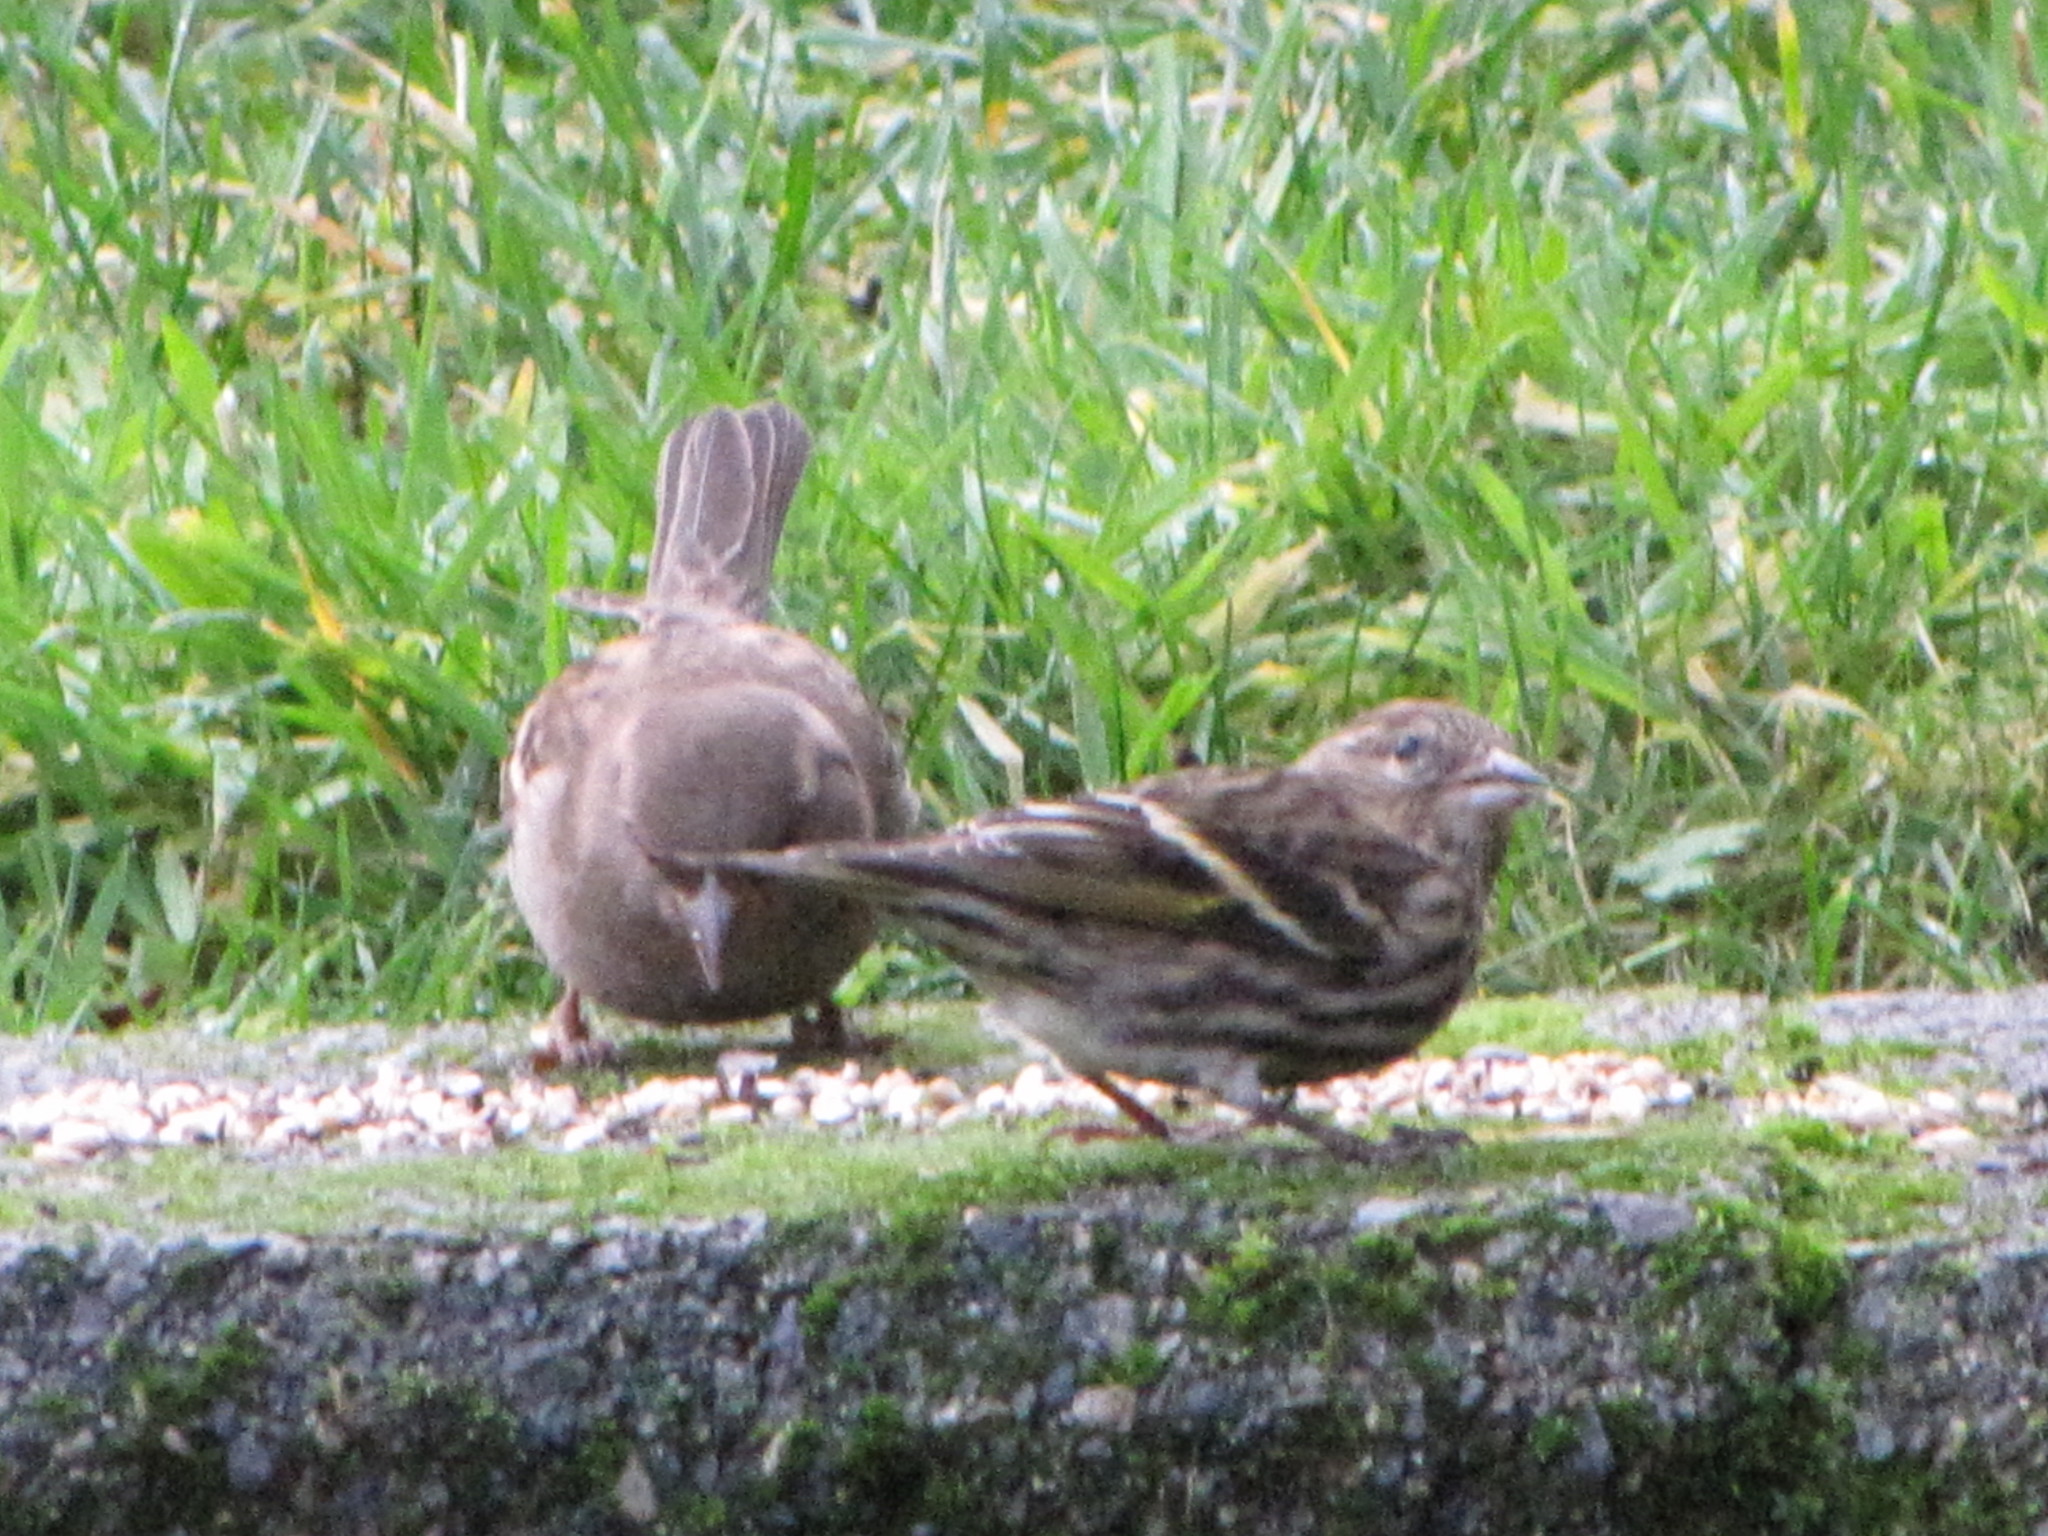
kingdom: Animalia
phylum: Chordata
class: Aves
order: Passeriformes
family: Fringillidae
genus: Spinus
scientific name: Spinus pinus
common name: Pine siskin
